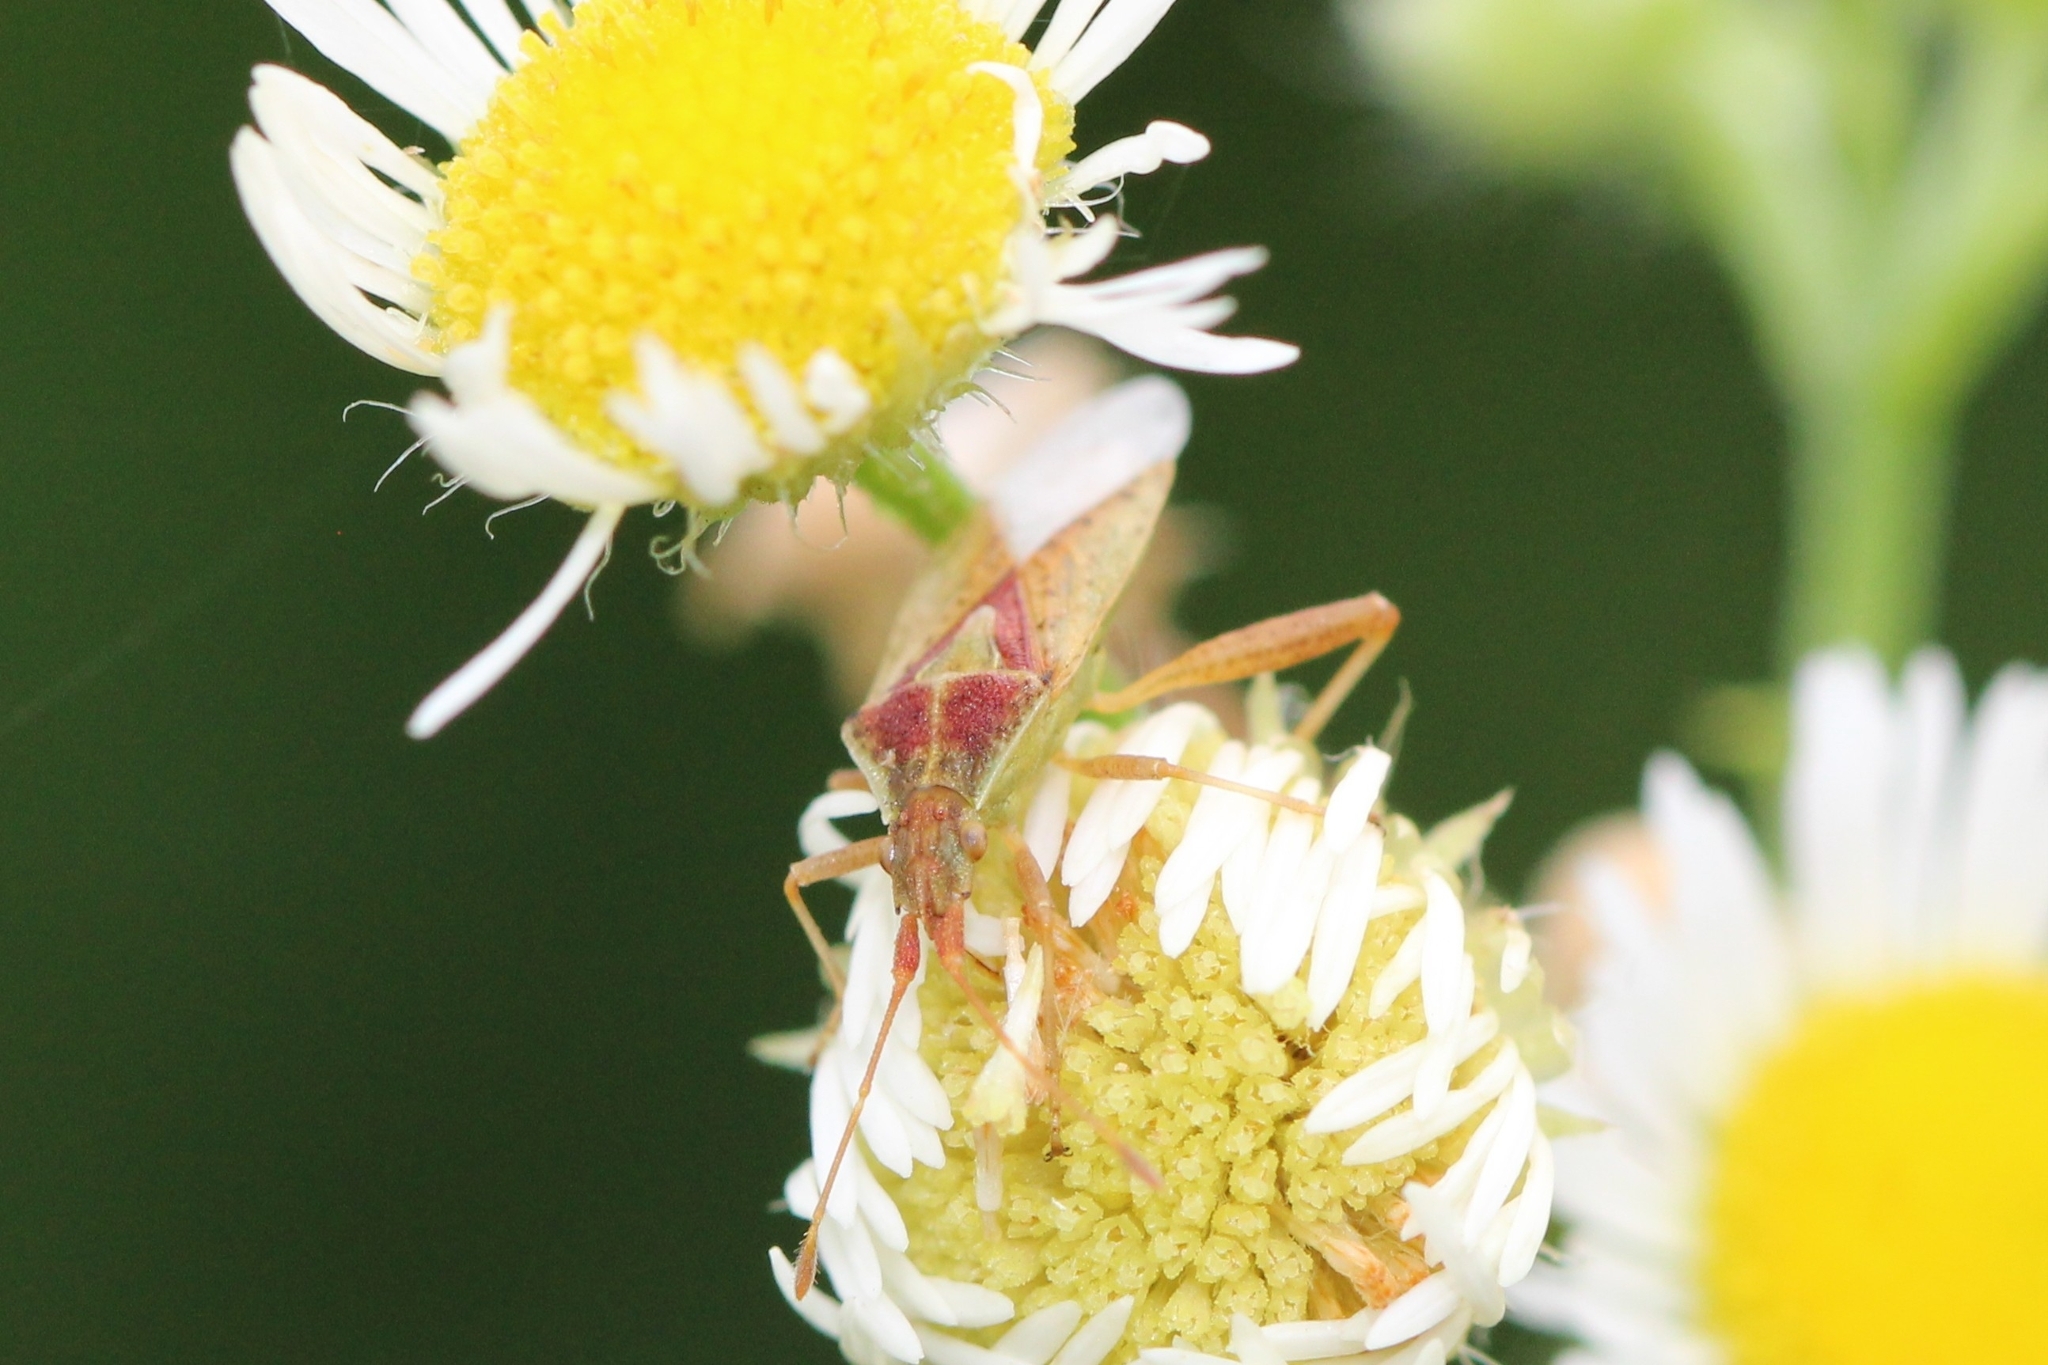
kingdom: Animalia
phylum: Arthropoda
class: Insecta
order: Hemiptera
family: Rhopalidae
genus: Harmostes
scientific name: Harmostes reflexulus
